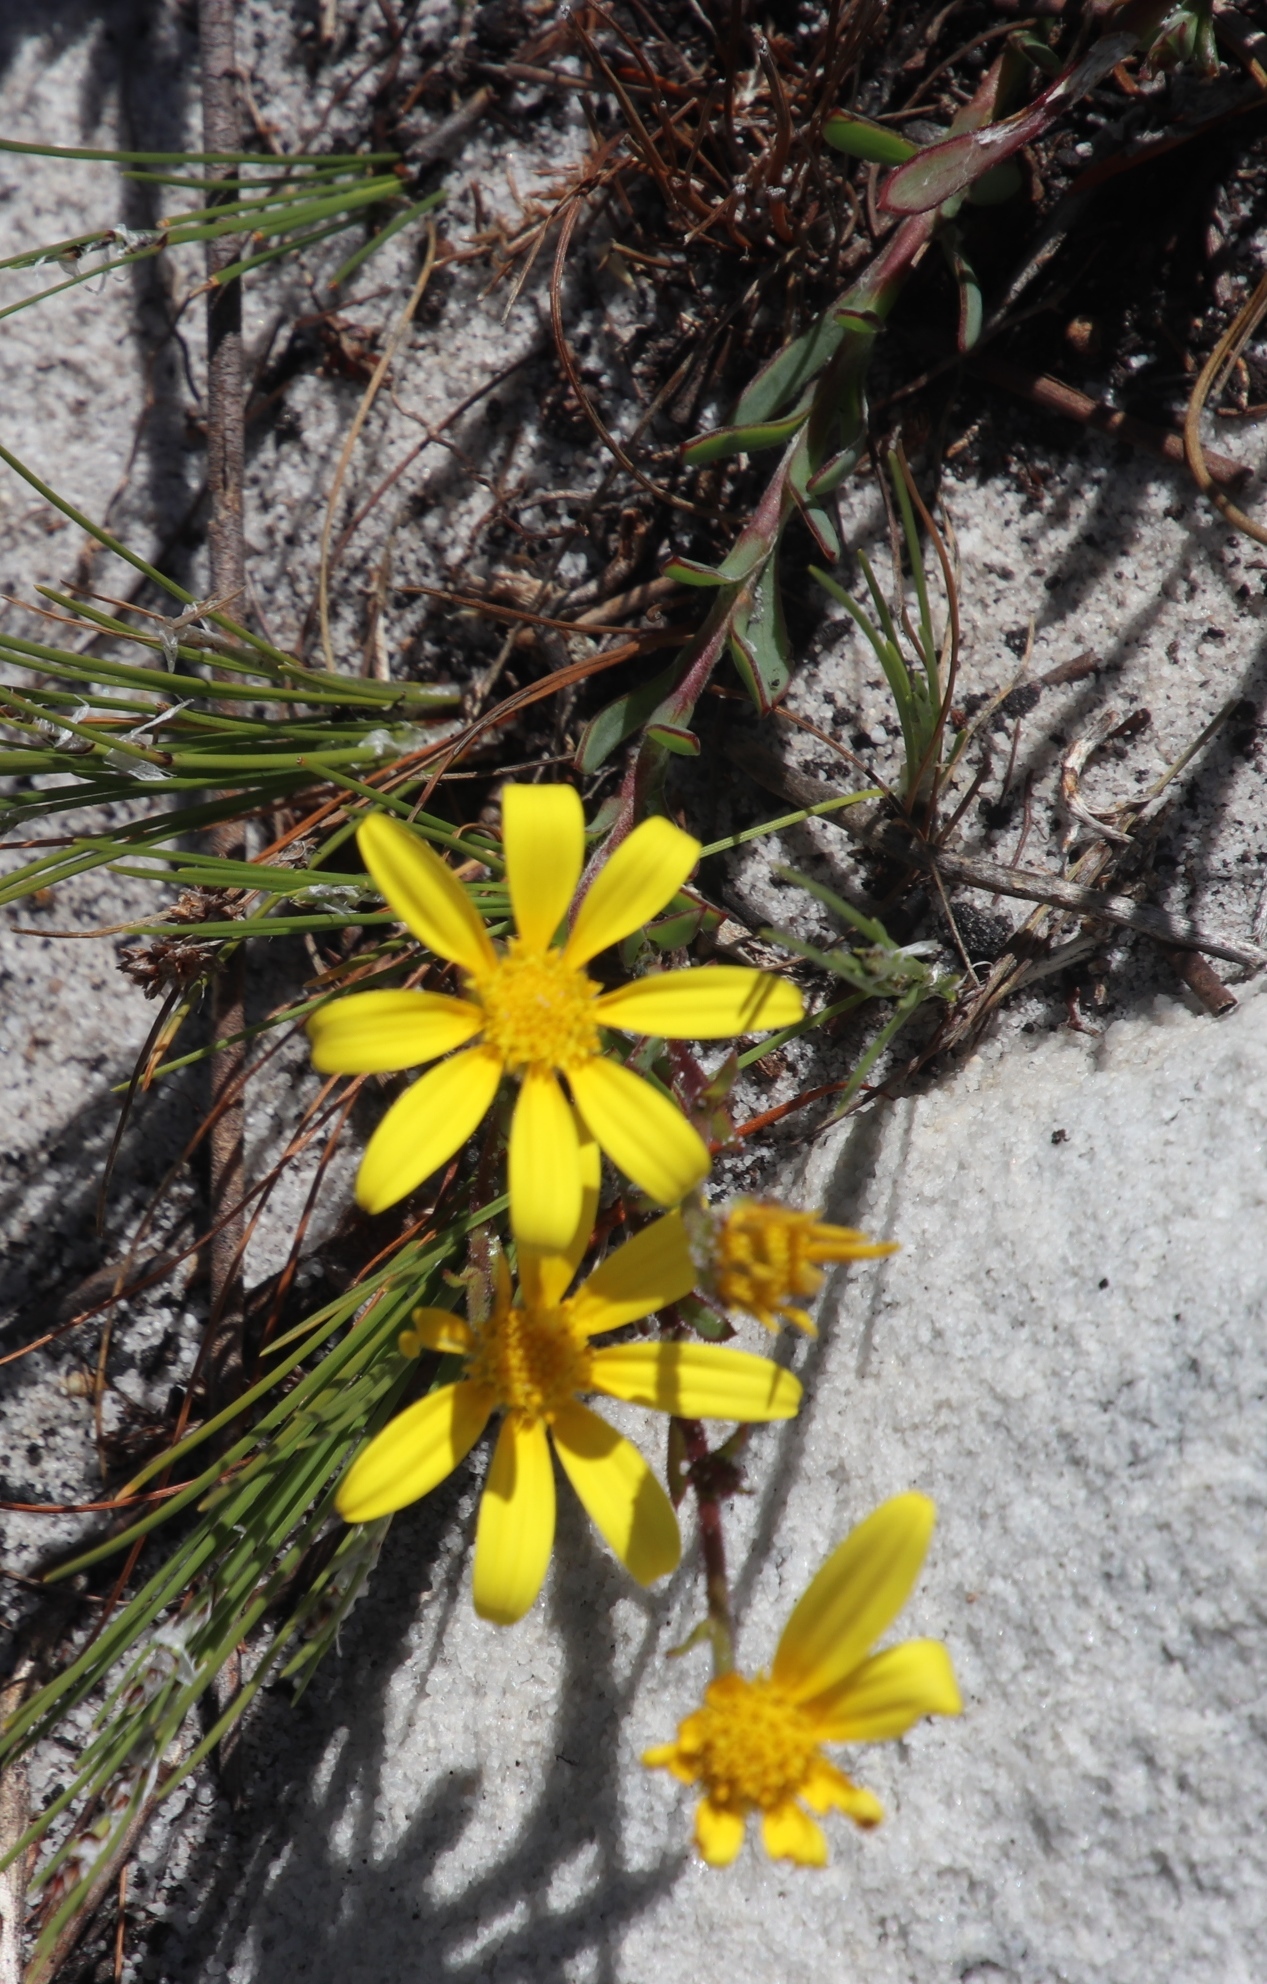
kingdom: Plantae
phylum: Tracheophyta
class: Magnoliopsida
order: Asterales
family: Asteraceae
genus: Osteospermum
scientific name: Osteospermum polygaloides
